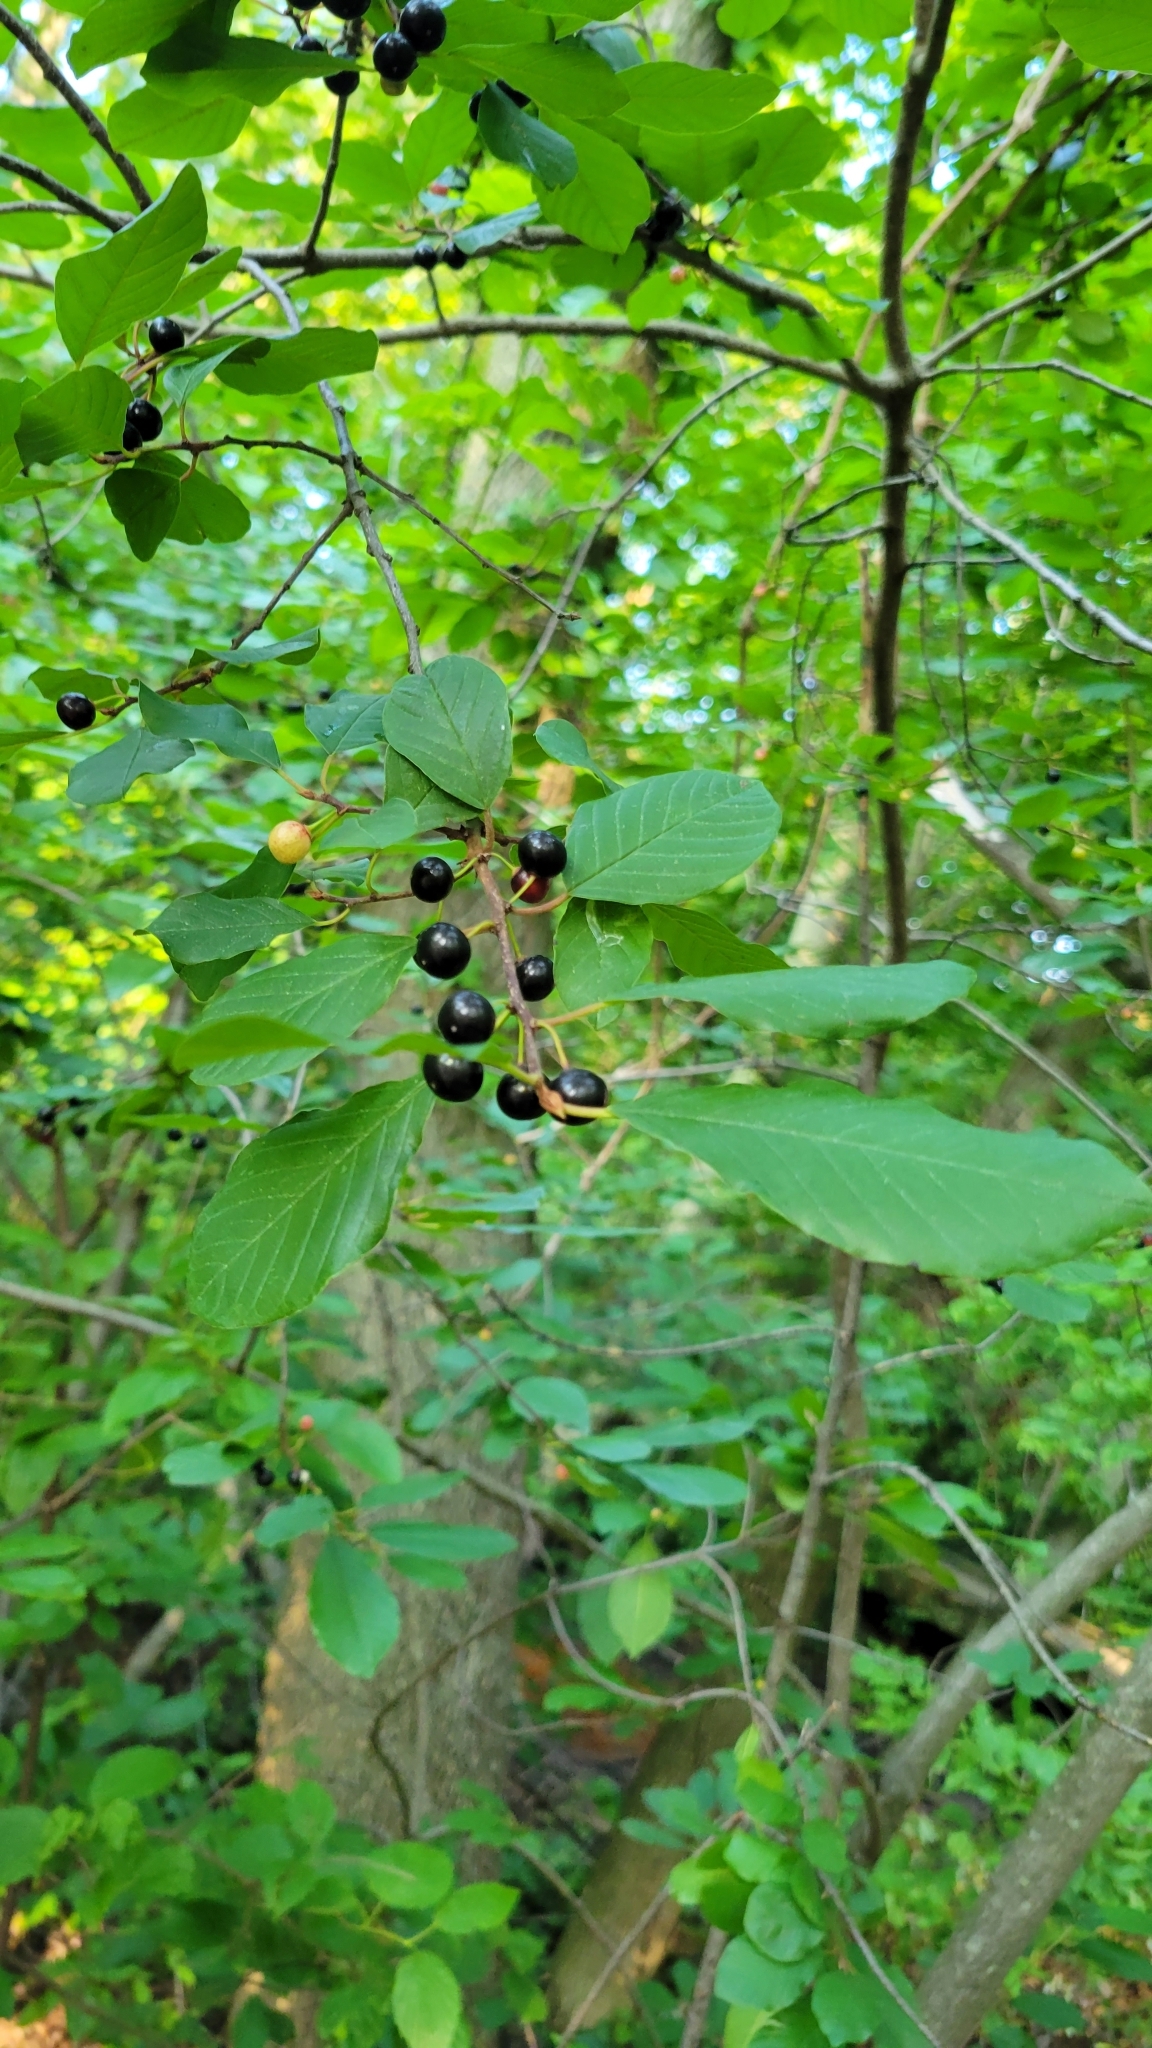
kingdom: Plantae
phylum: Tracheophyta
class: Magnoliopsida
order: Rosales
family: Rhamnaceae
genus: Frangula
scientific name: Frangula alnus
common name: Alder buckthorn
